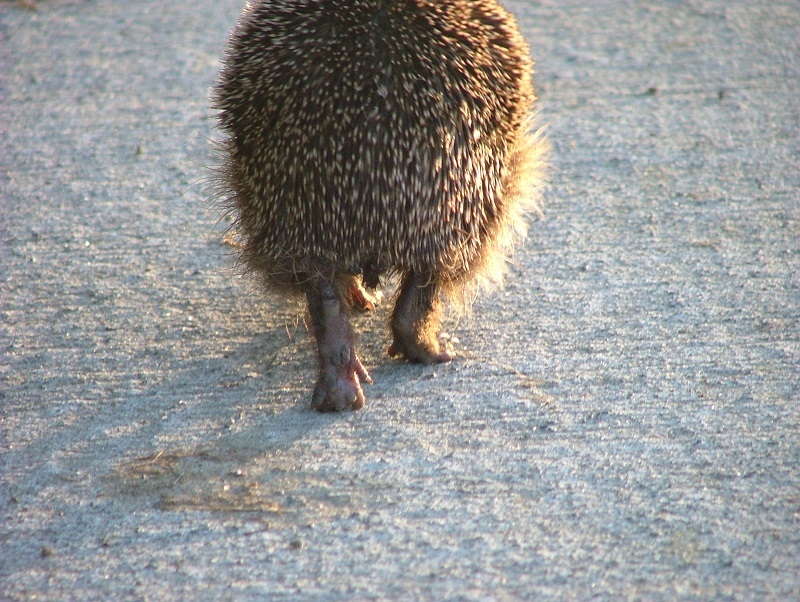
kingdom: Animalia
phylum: Chordata
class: Mammalia
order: Erinaceomorpha
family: Erinaceidae
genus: Erinaceus
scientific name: Erinaceus europaeus
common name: West european hedgehog
